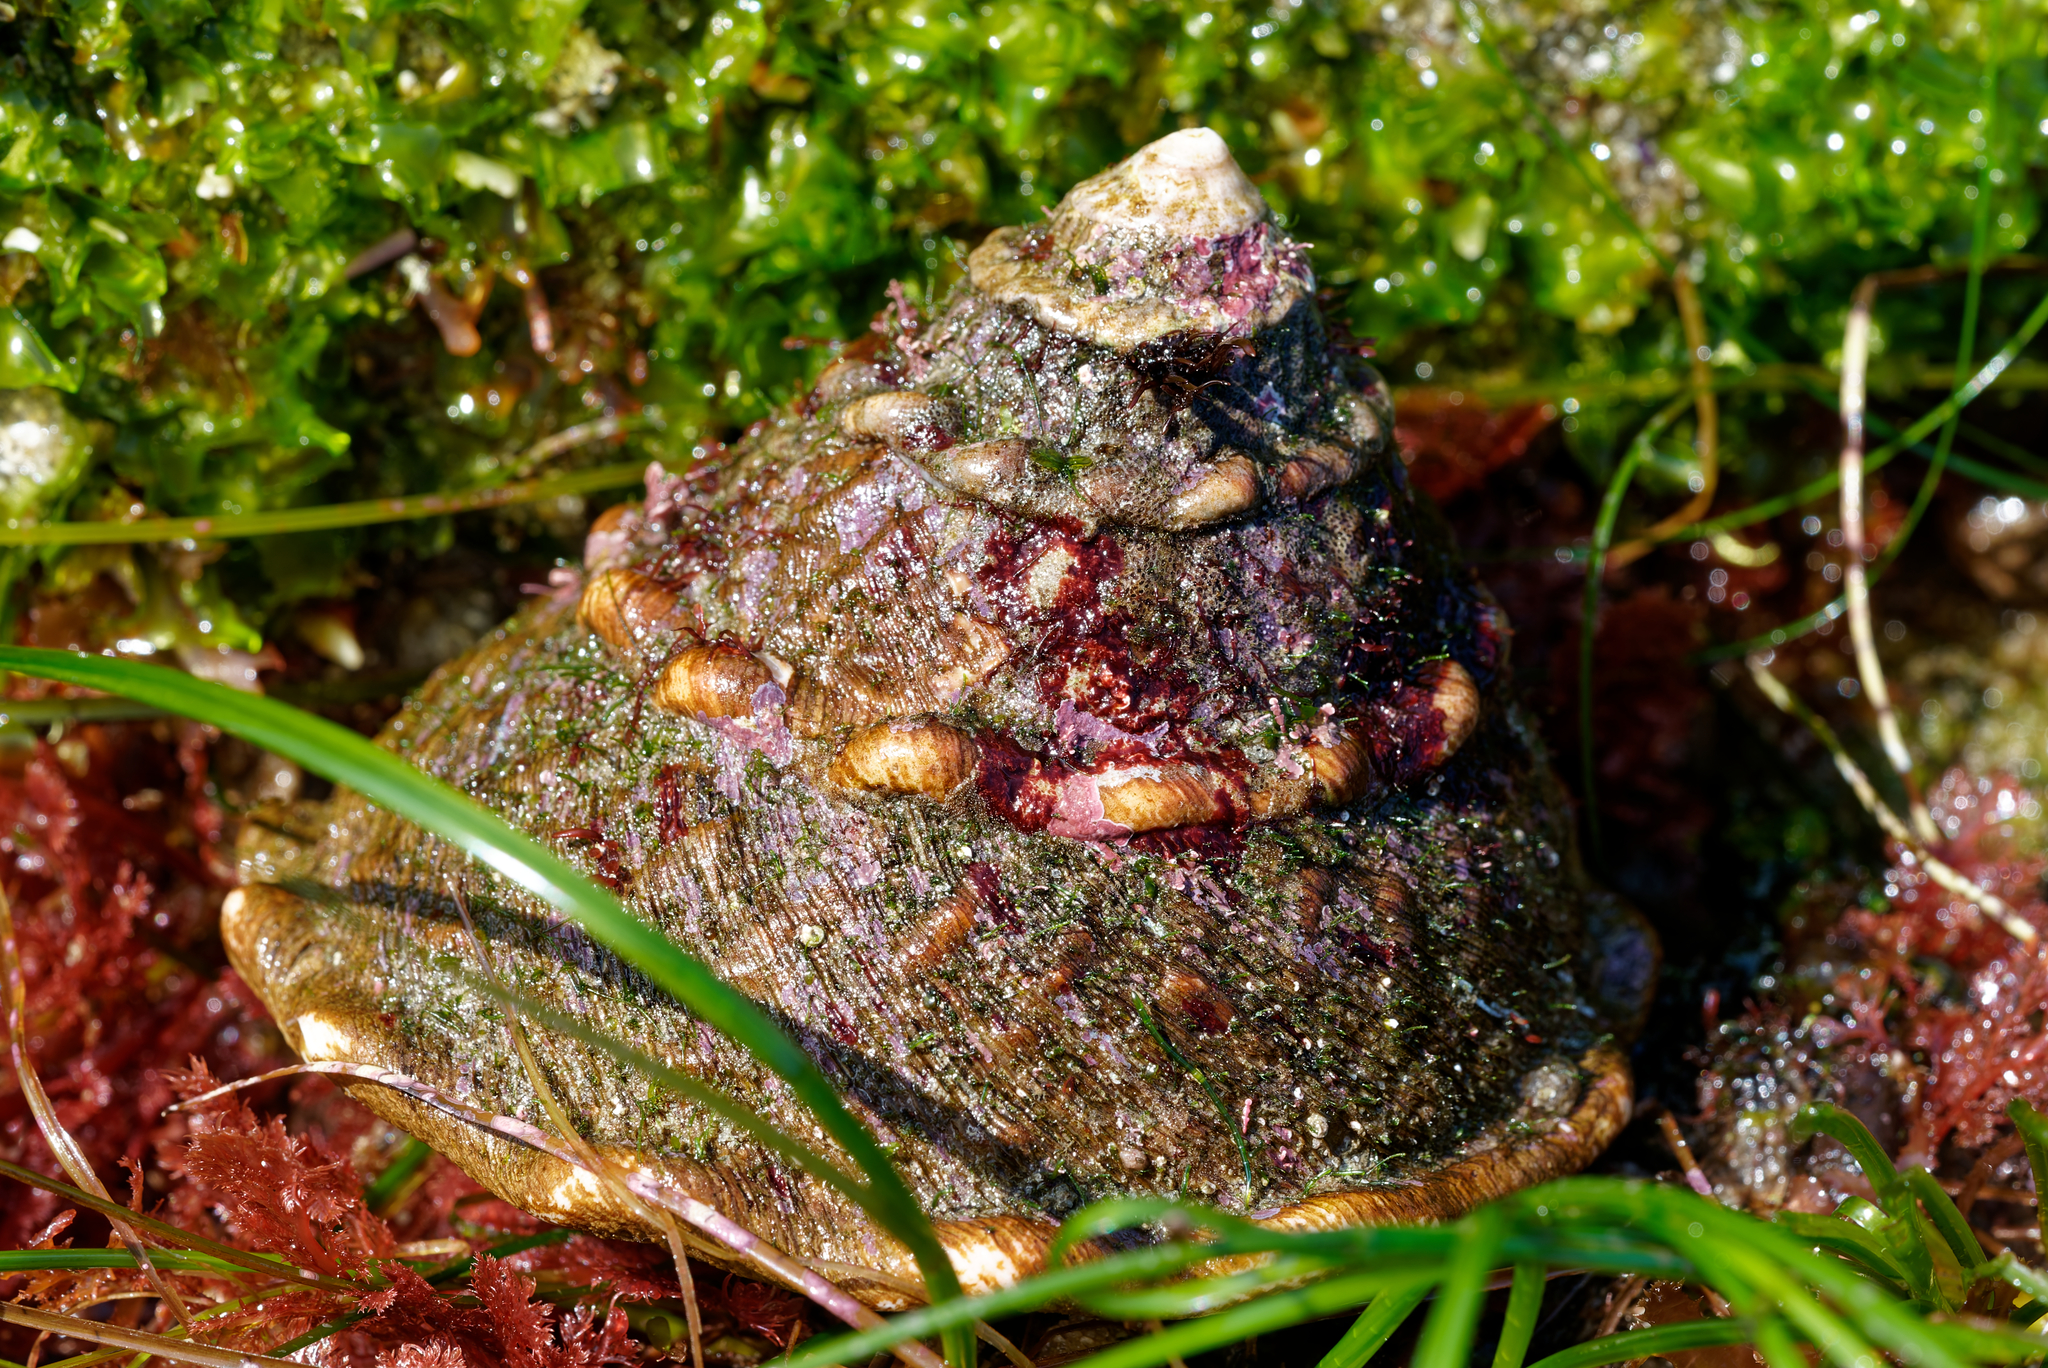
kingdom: Animalia
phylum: Mollusca
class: Gastropoda
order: Trochida
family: Turbinidae
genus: Megastraea
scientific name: Megastraea undosa
